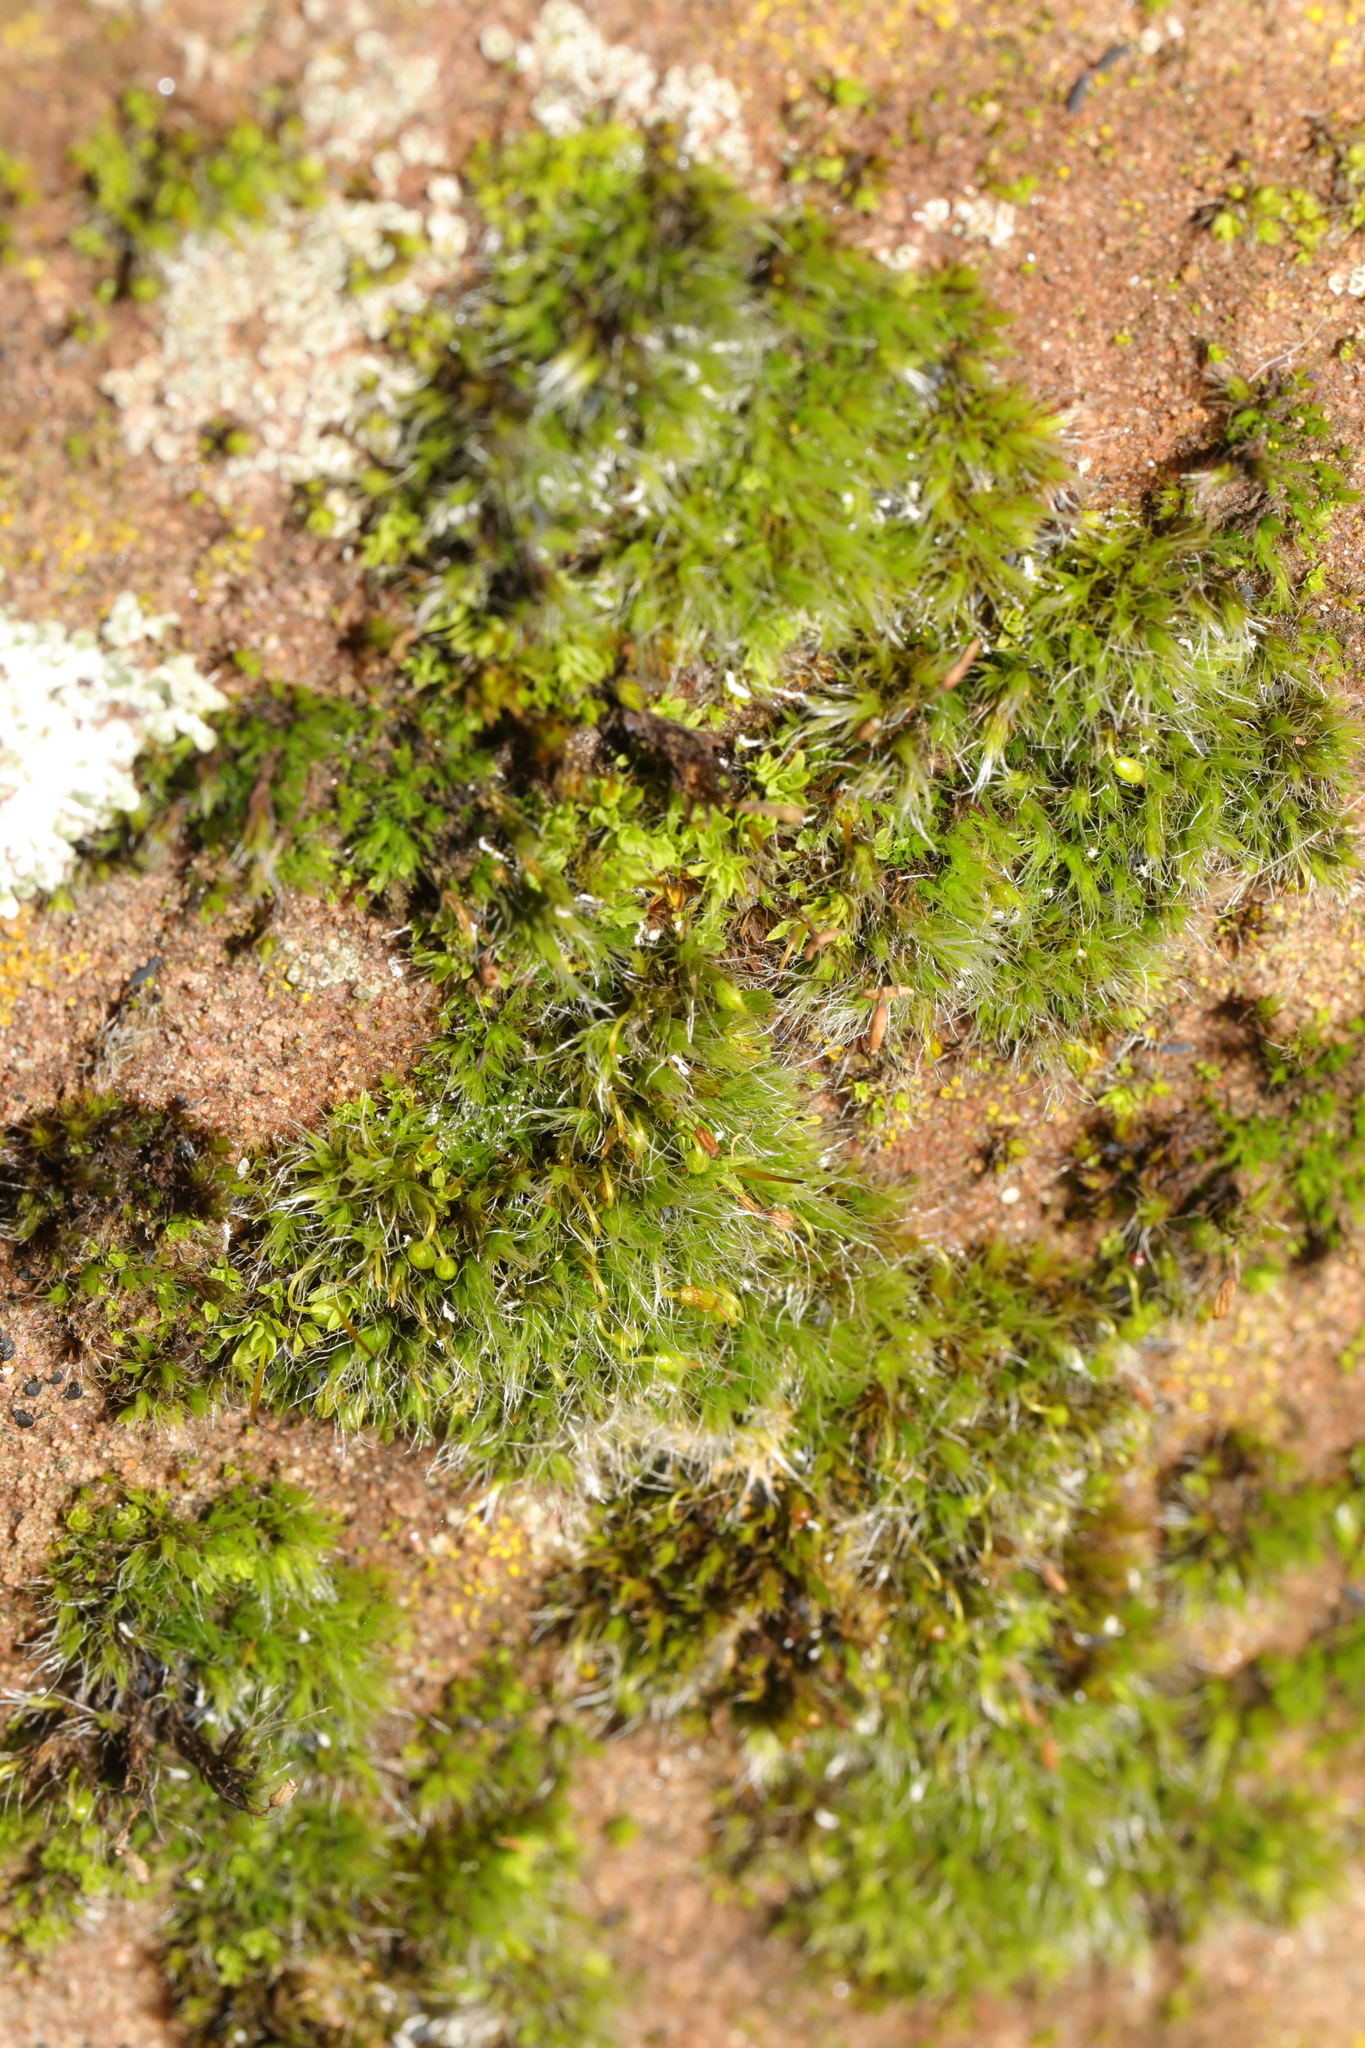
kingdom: Plantae
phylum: Bryophyta
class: Bryopsida
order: Grimmiales
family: Grimmiaceae
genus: Grimmia
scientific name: Grimmia pulvinata
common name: Grey-cushioned grimmia
